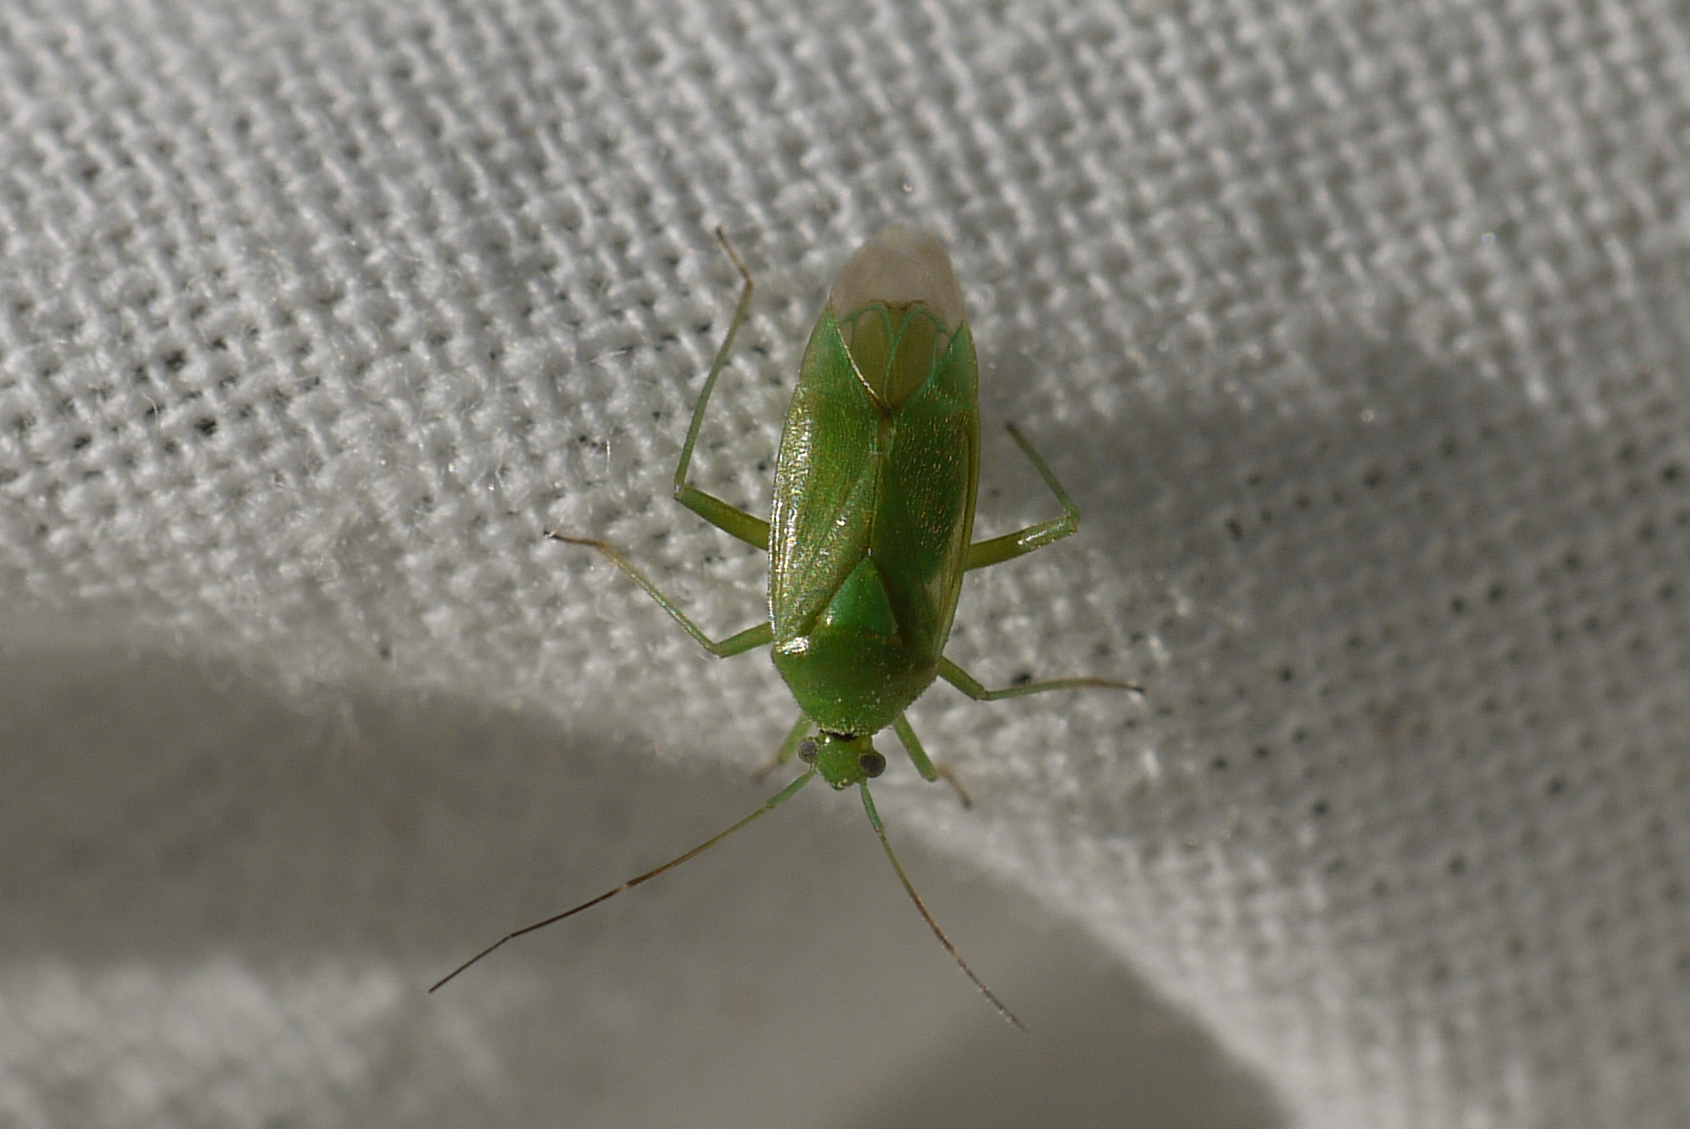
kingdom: Animalia
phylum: Arthropoda
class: Insecta
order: Hemiptera
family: Miridae
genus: Lygocoris
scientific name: Lygocoris pabulinus
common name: Common green capsid
